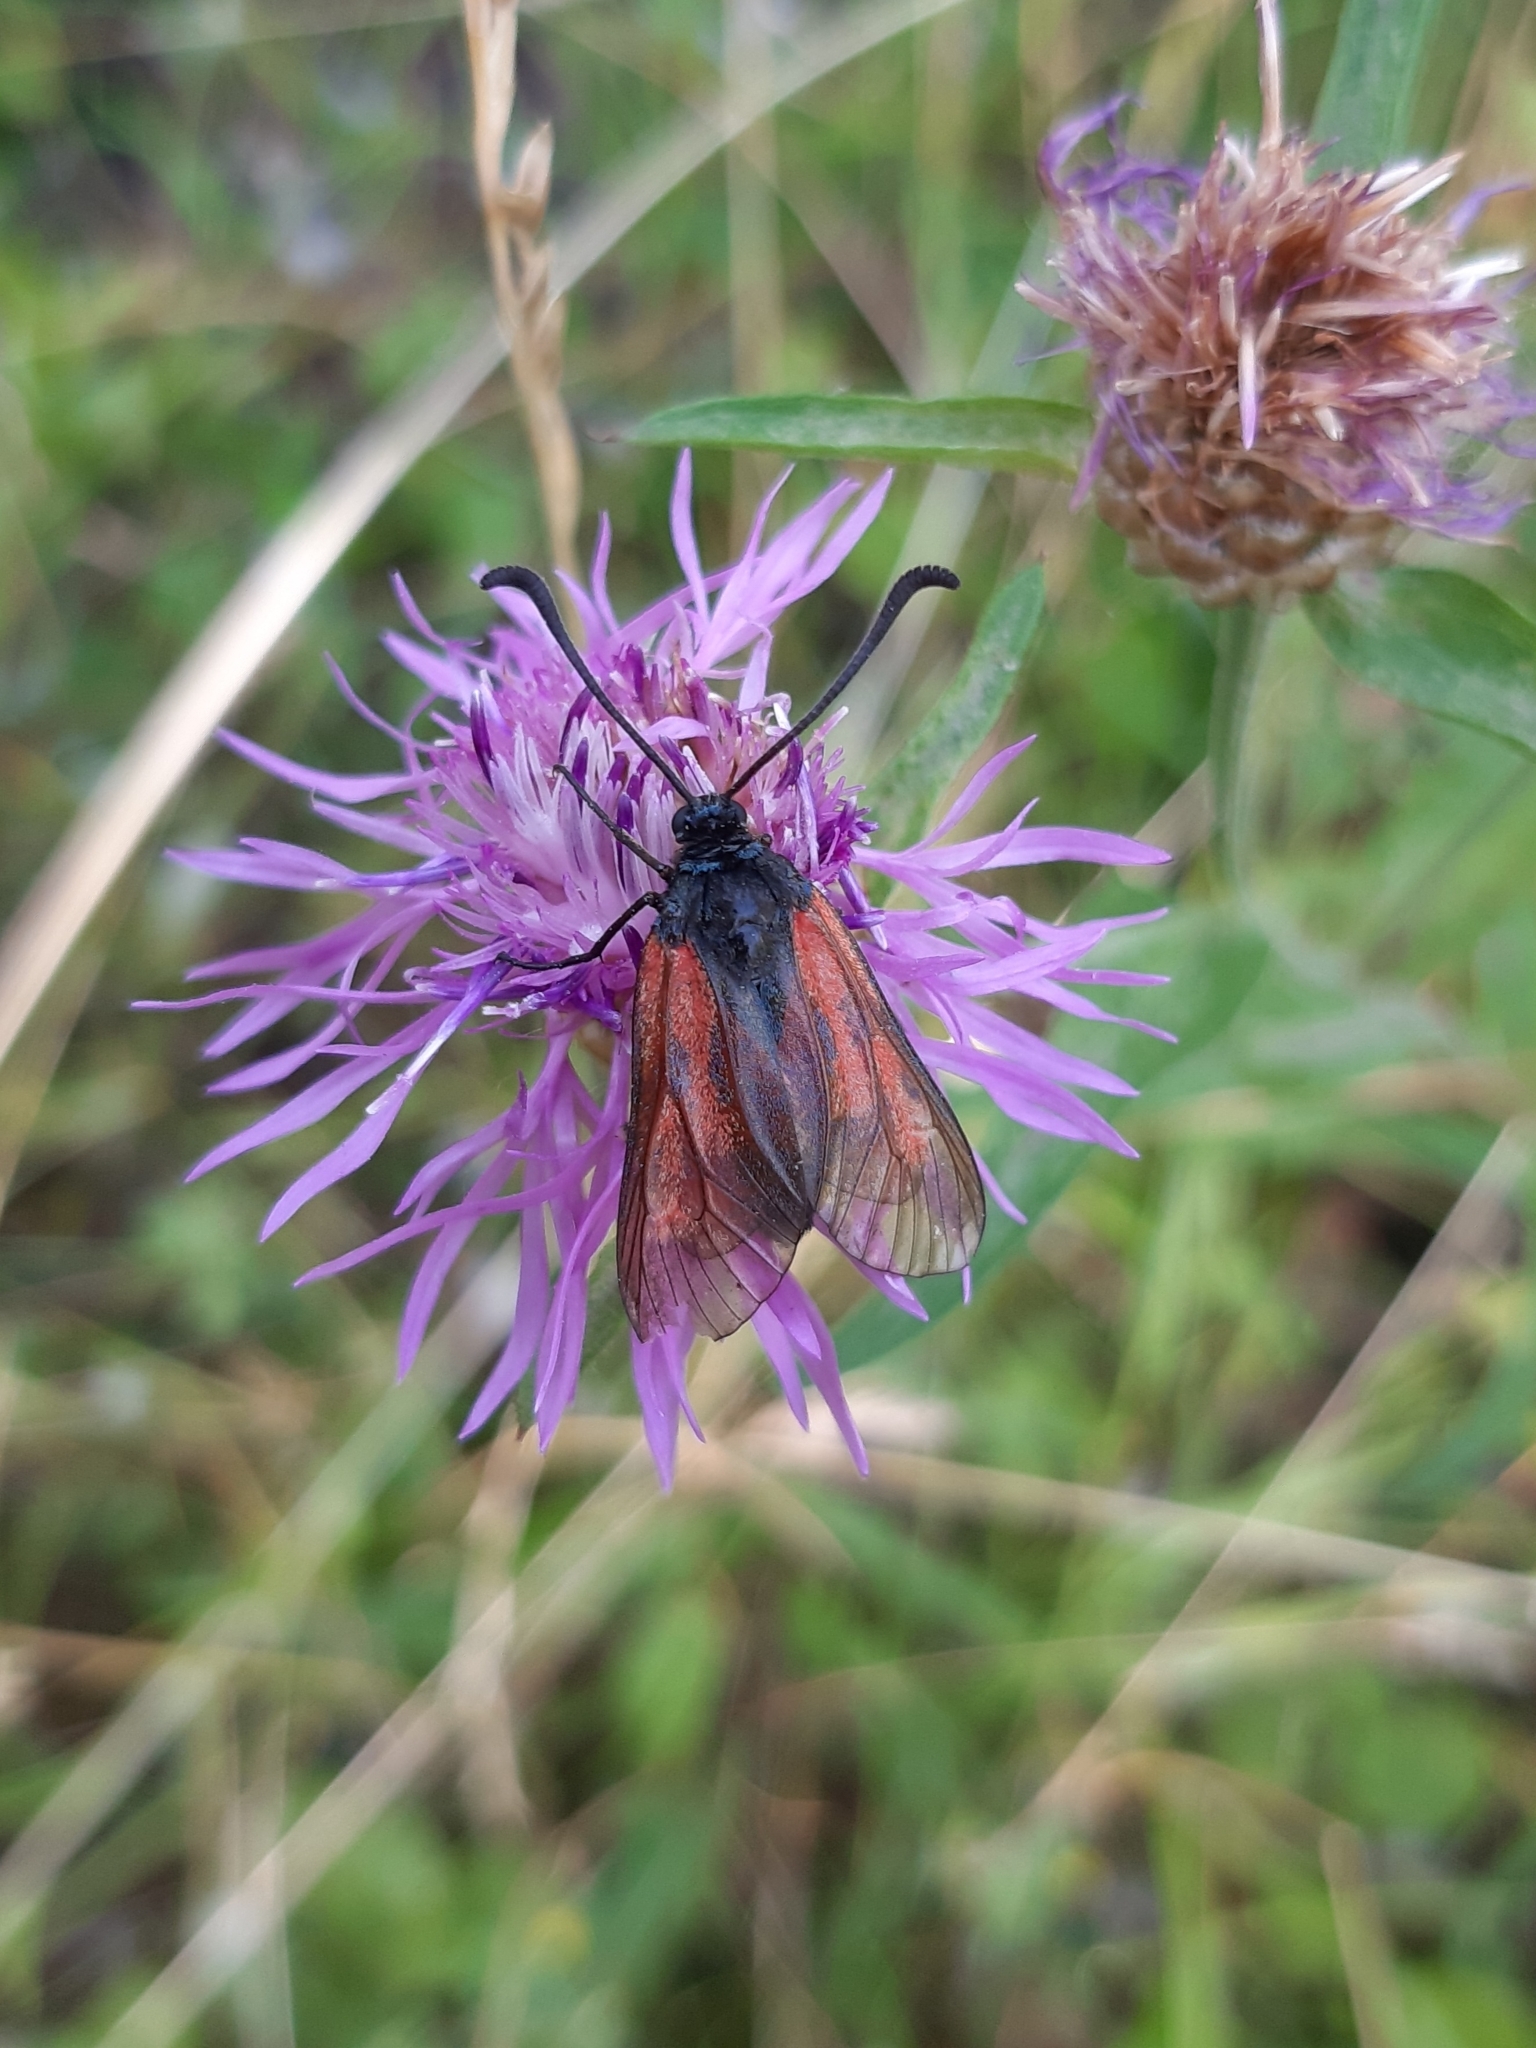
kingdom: Animalia
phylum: Arthropoda
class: Insecta
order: Lepidoptera
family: Zygaenidae
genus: Zygaena
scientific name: Zygaena minos
